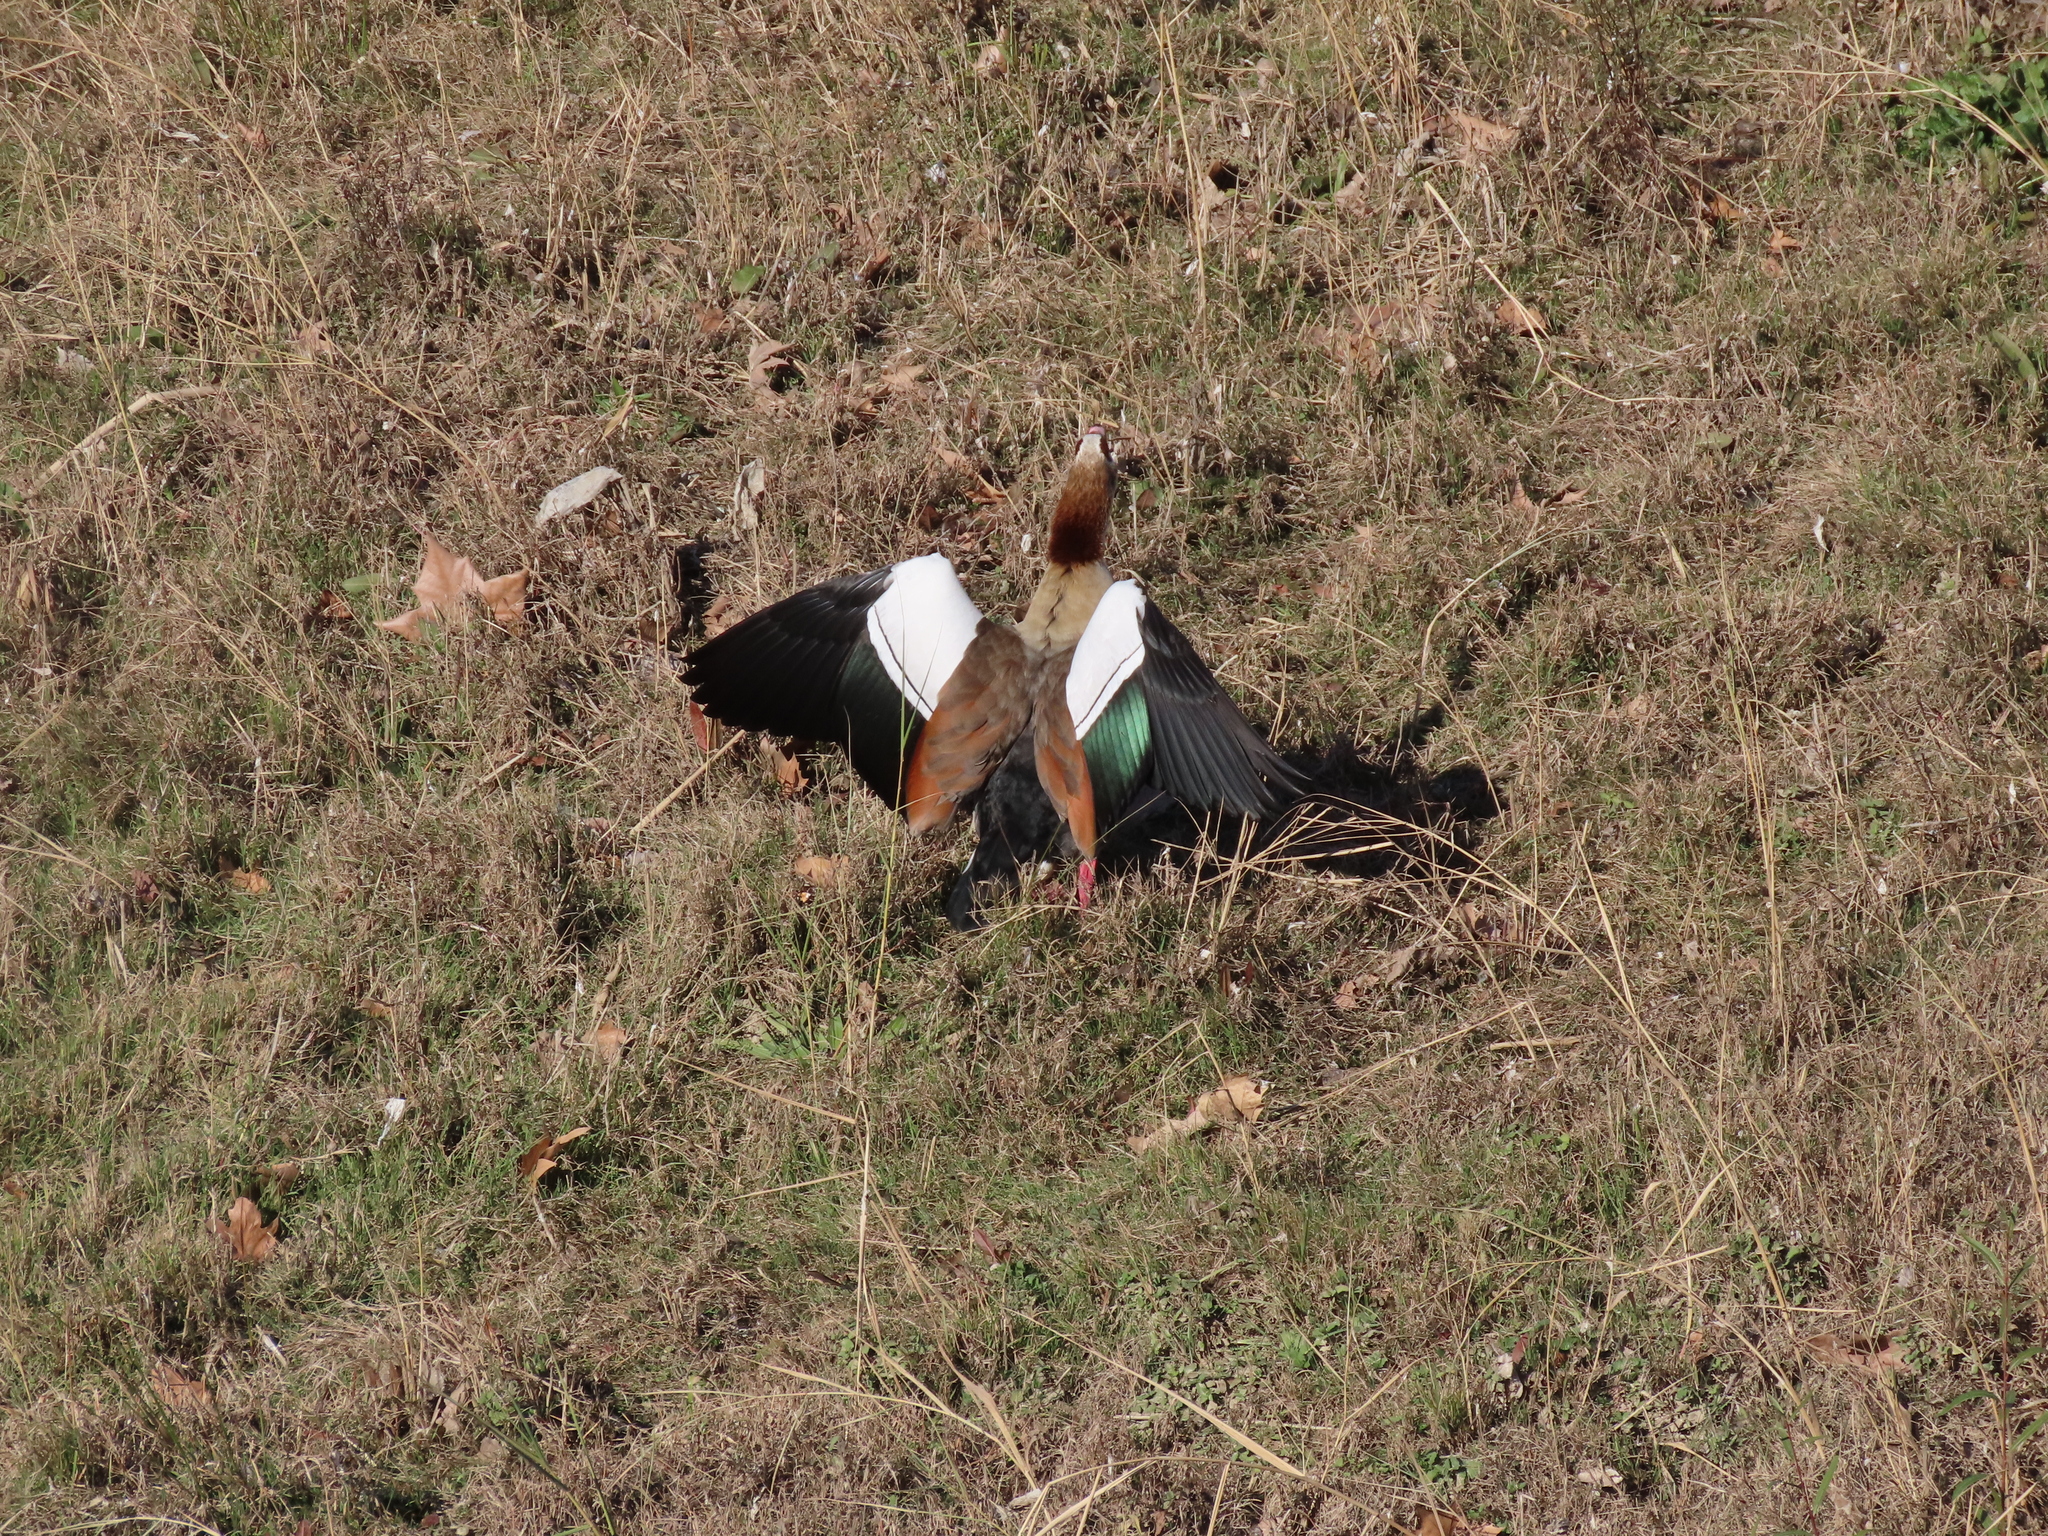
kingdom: Animalia
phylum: Chordata
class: Aves
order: Anseriformes
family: Anatidae
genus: Alopochen
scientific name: Alopochen aegyptiaca
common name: Egyptian goose
